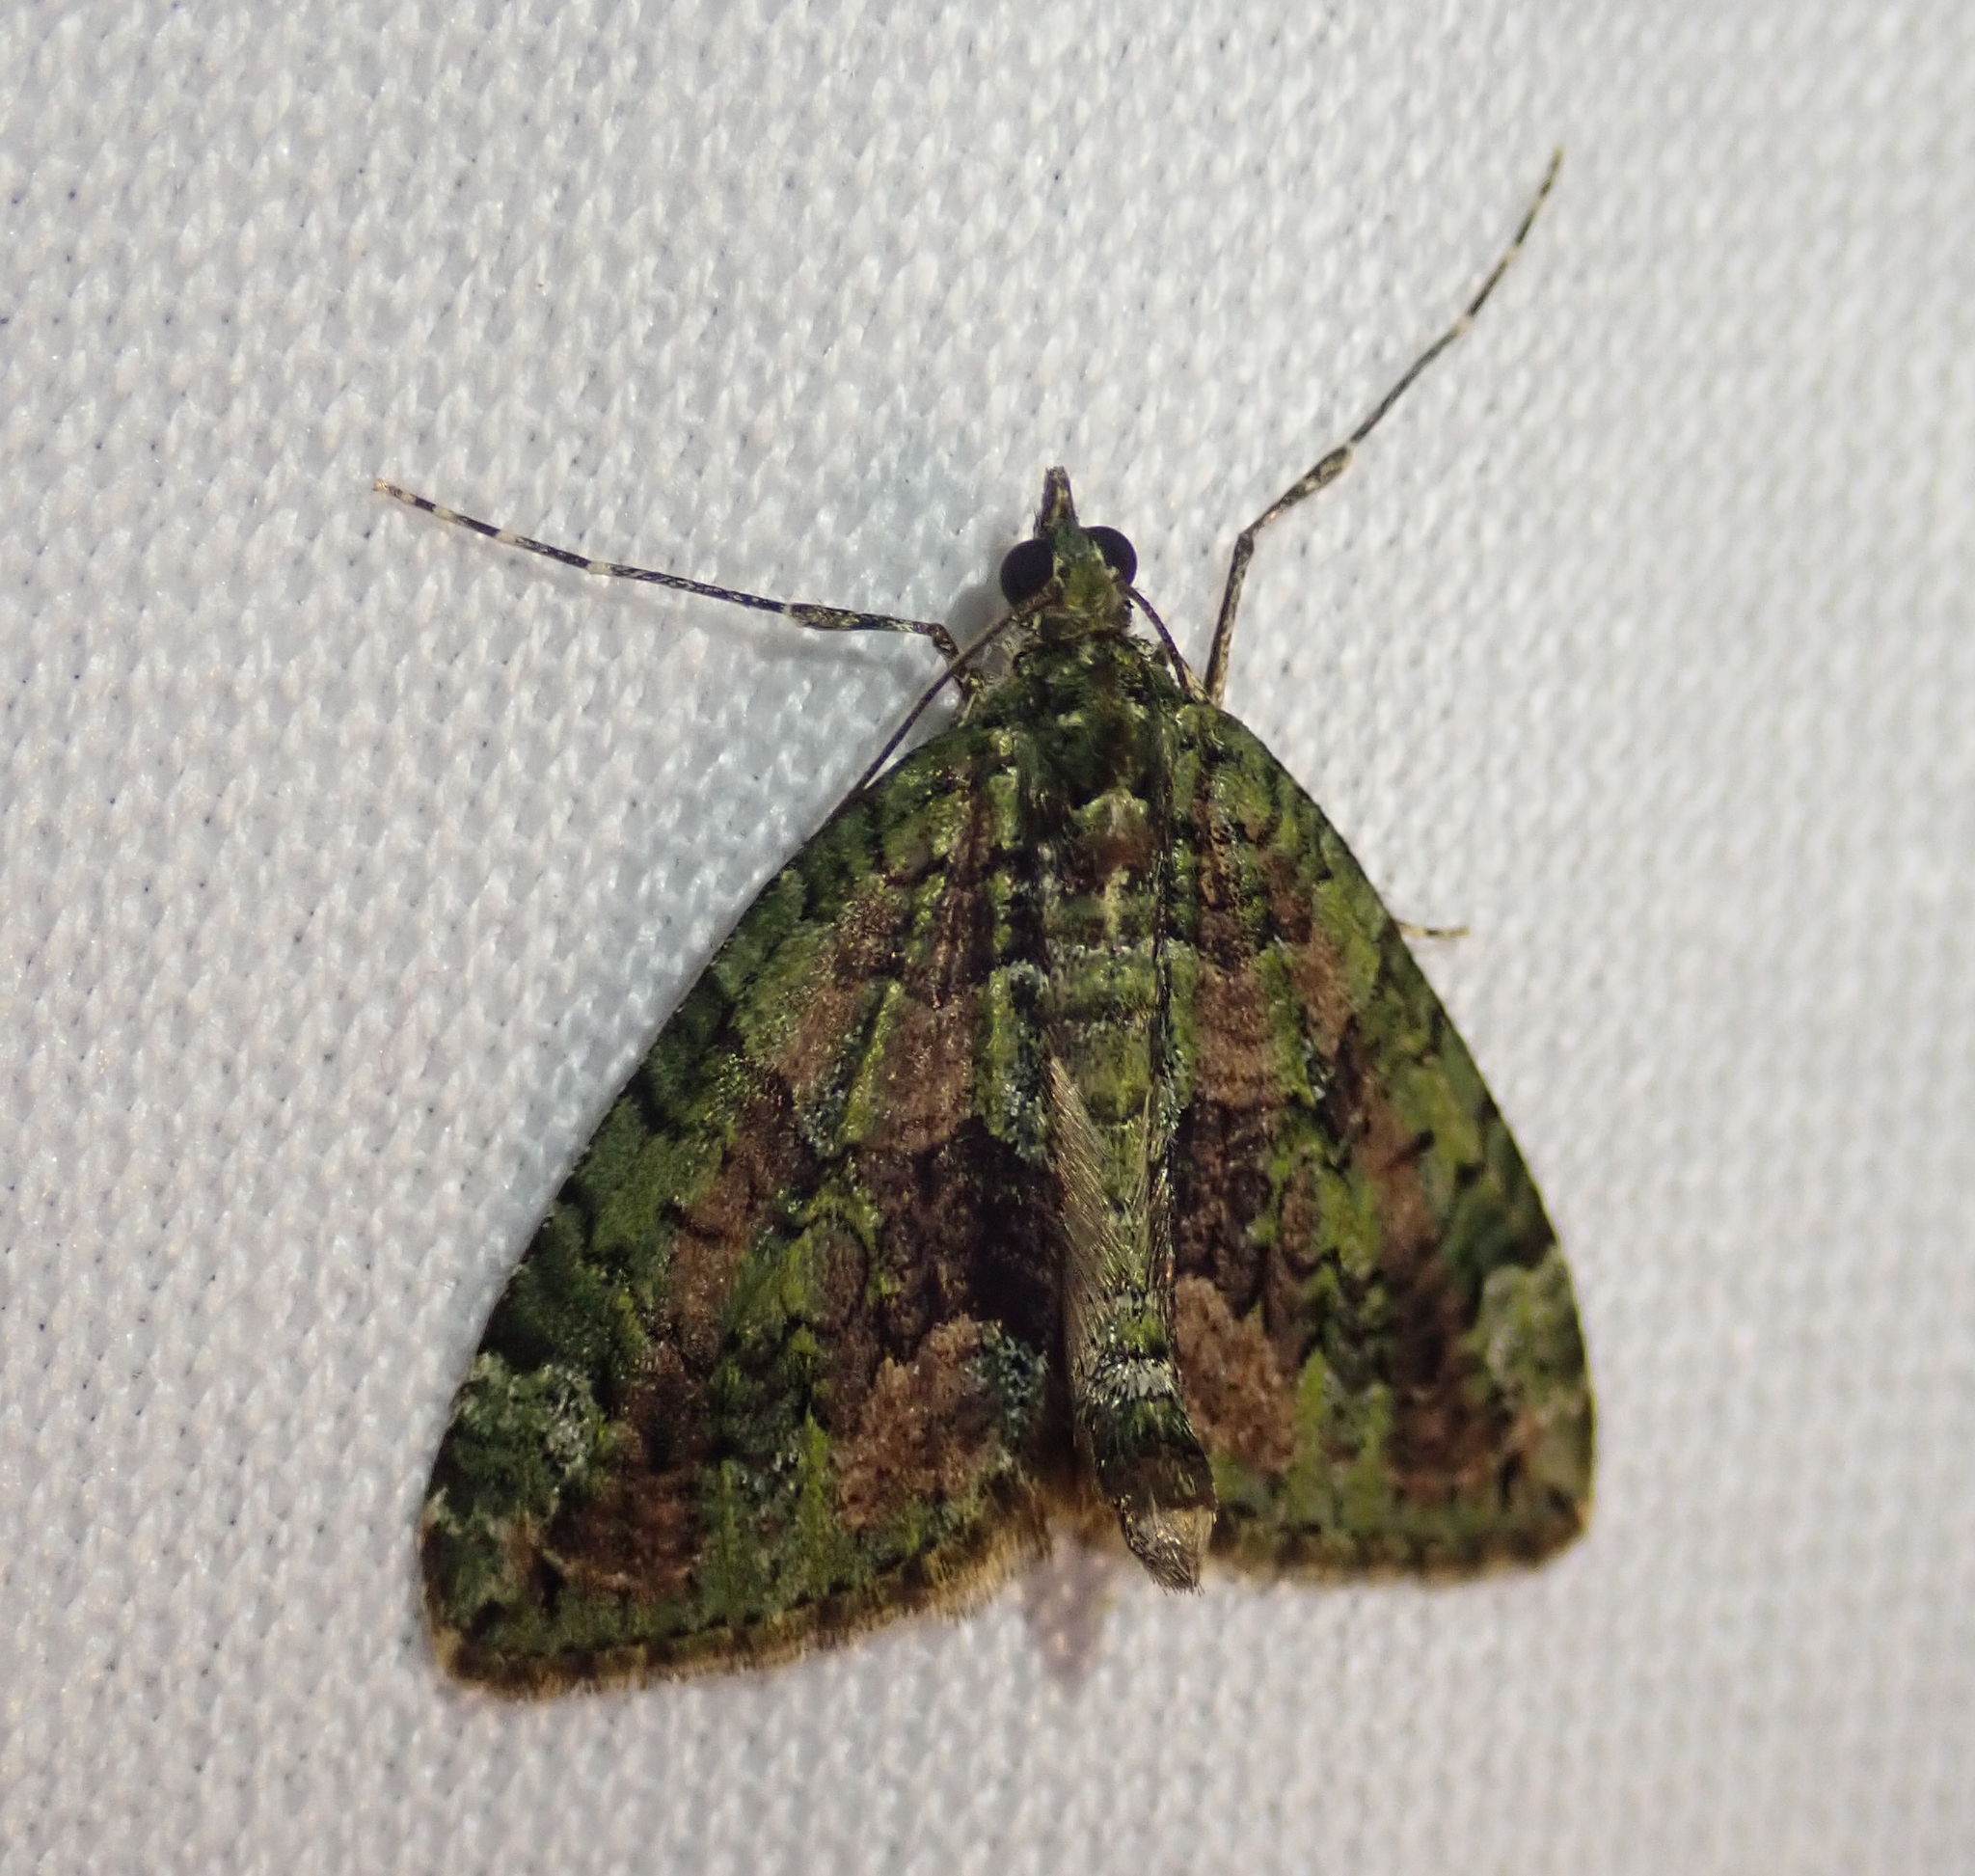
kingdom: Animalia
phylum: Arthropoda
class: Insecta
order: Lepidoptera
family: Geometridae
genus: Chloroclysta
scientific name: Chloroclysta siterata
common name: Red-green carpet
